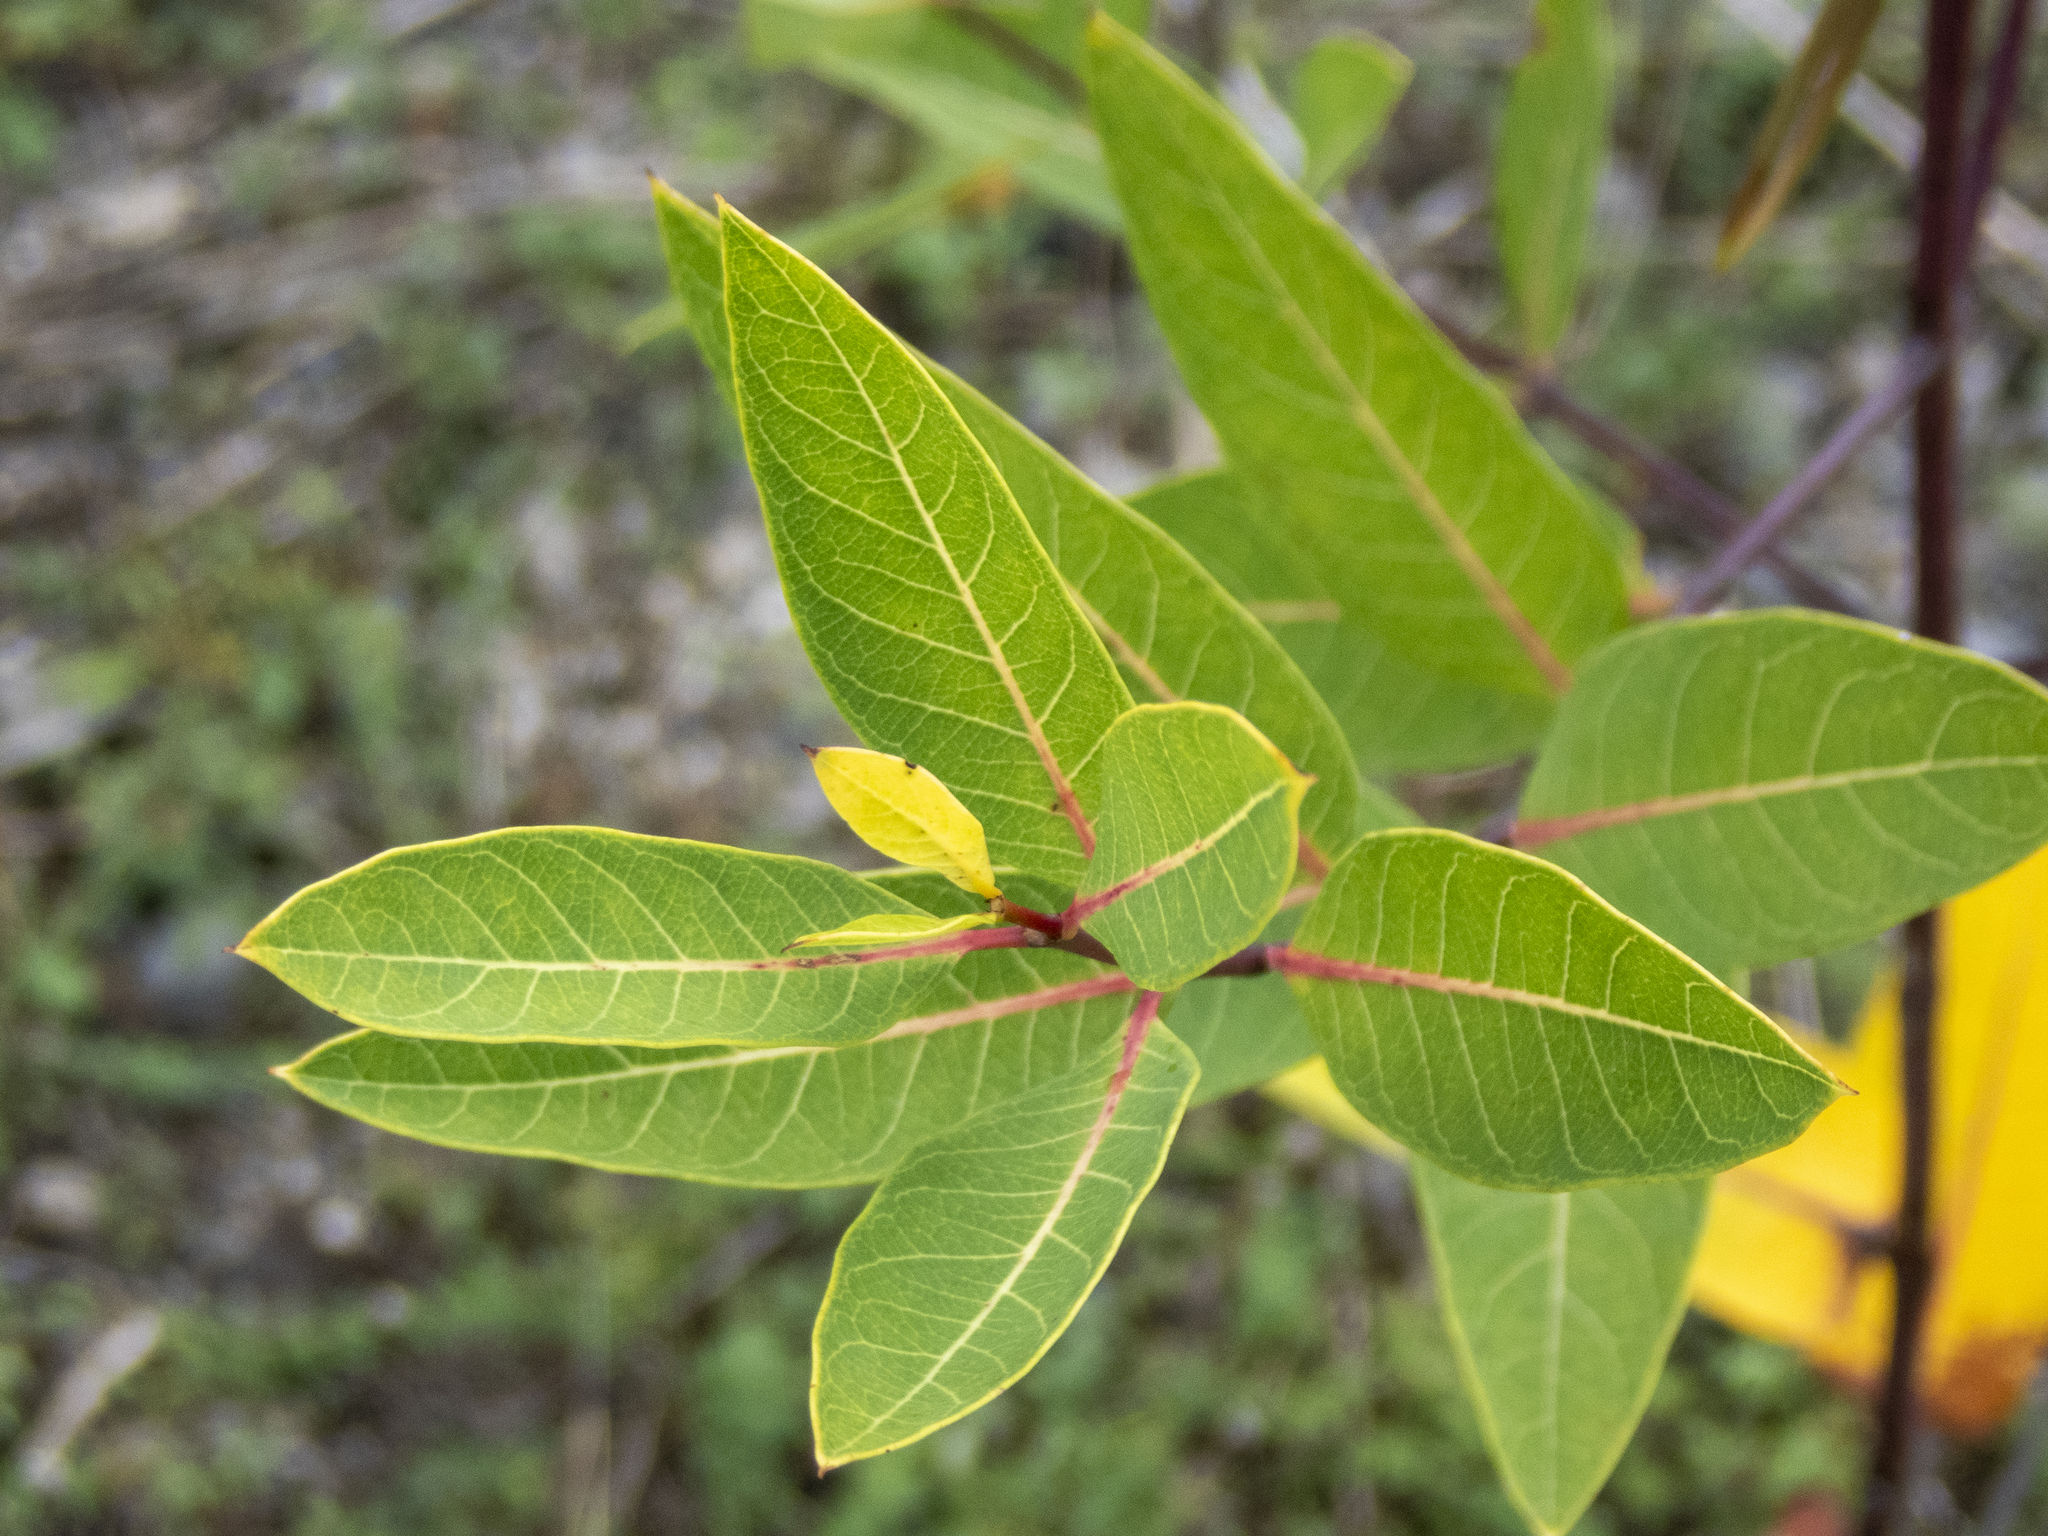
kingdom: Plantae
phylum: Tracheophyta
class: Magnoliopsida
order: Gentianales
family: Apocynaceae
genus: Apocynum
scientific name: Apocynum cannabinum
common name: Hemp dogbane
